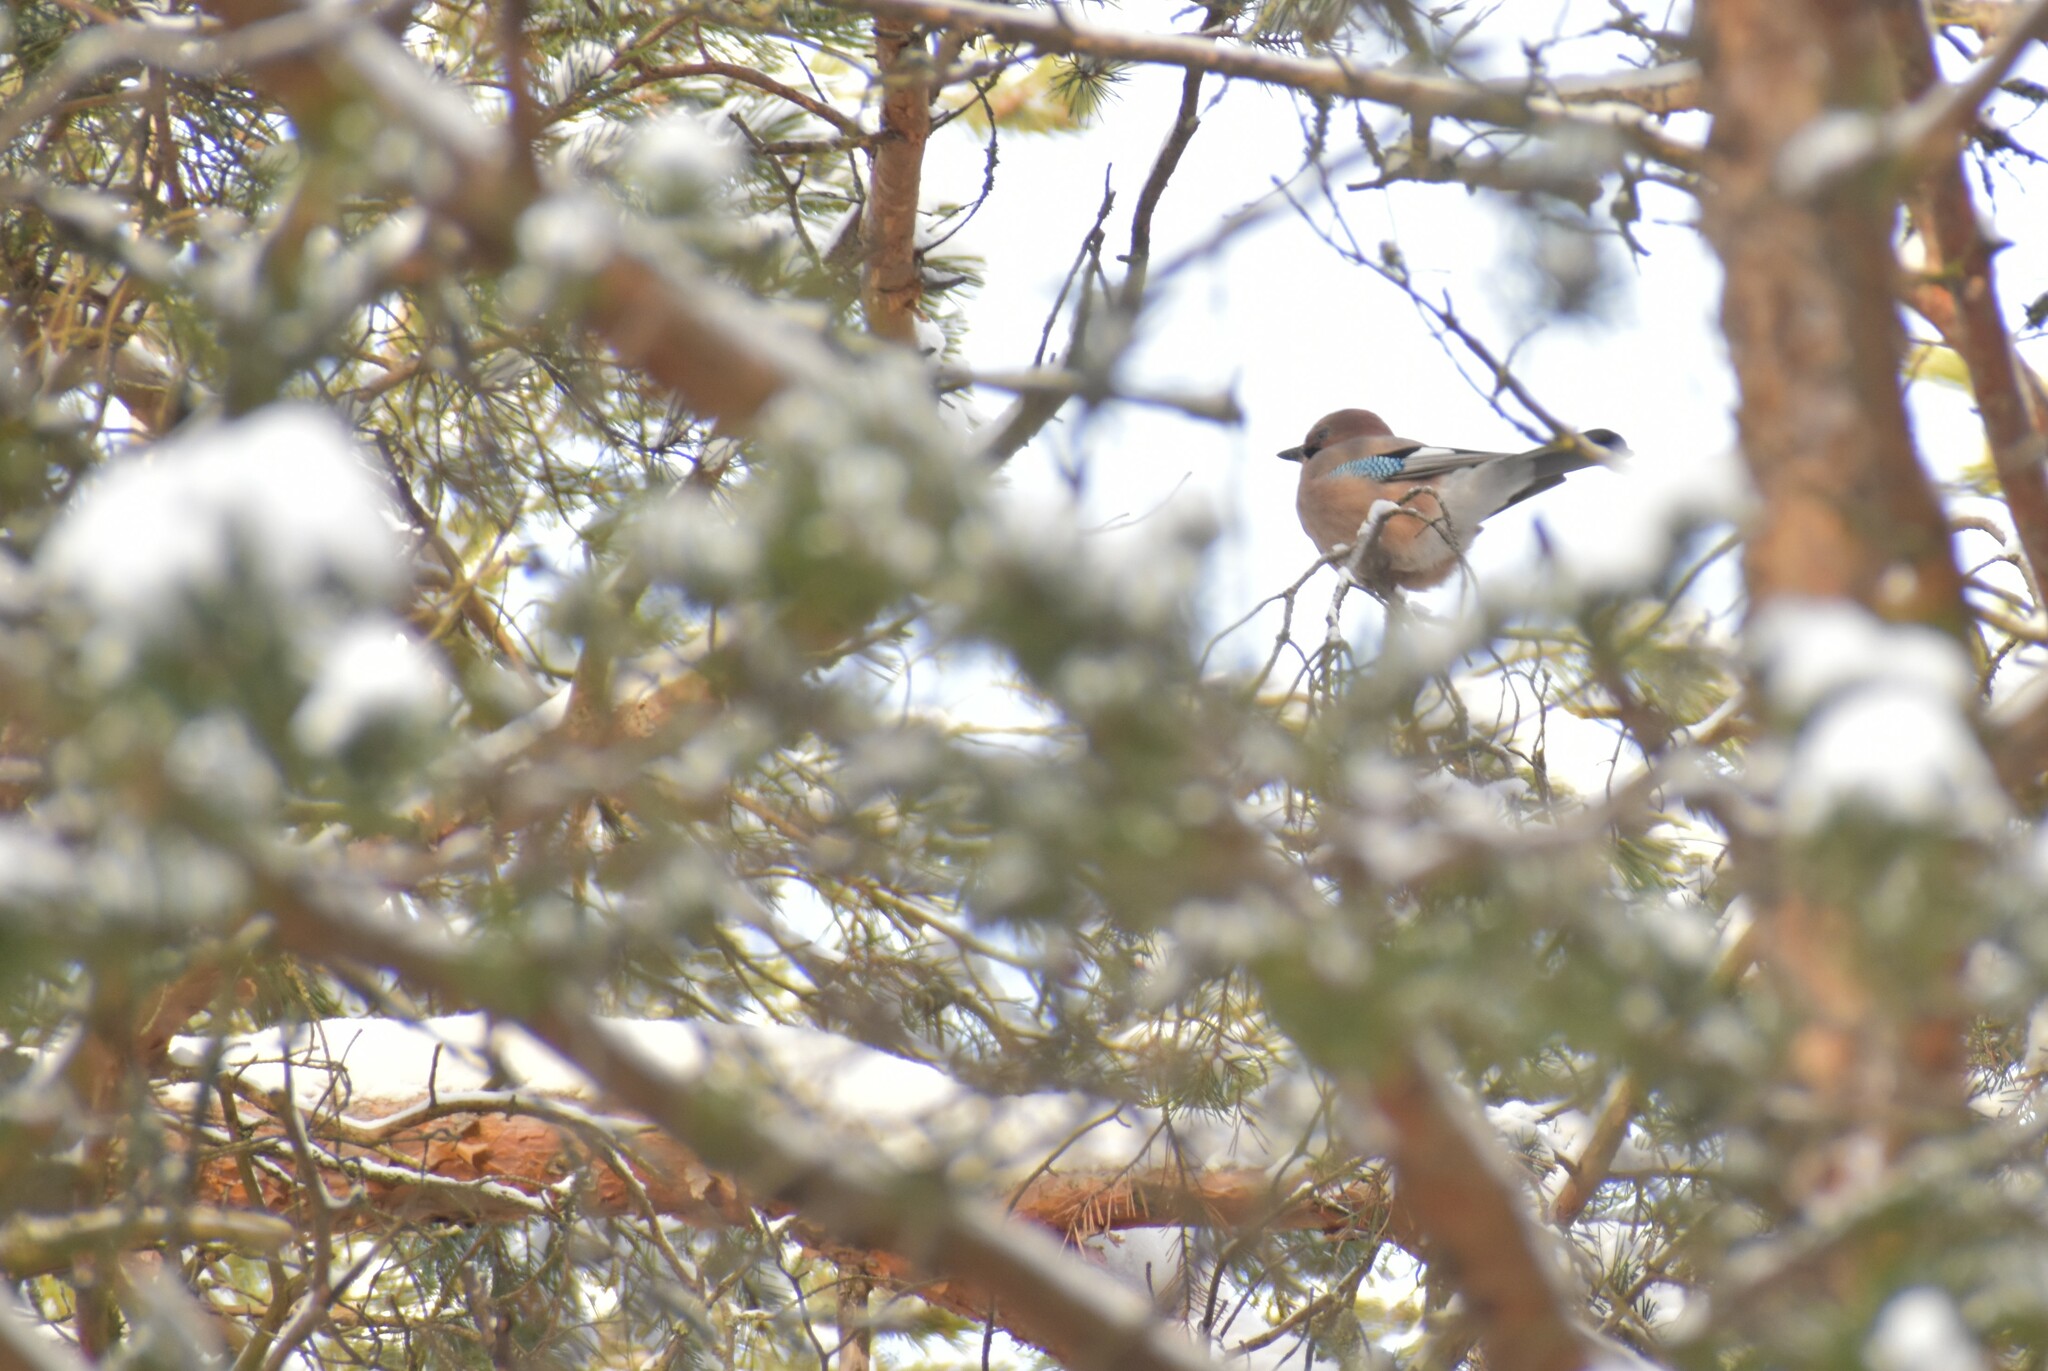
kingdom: Animalia
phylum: Chordata
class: Aves
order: Passeriformes
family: Corvidae
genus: Garrulus
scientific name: Garrulus glandarius
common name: Eurasian jay
